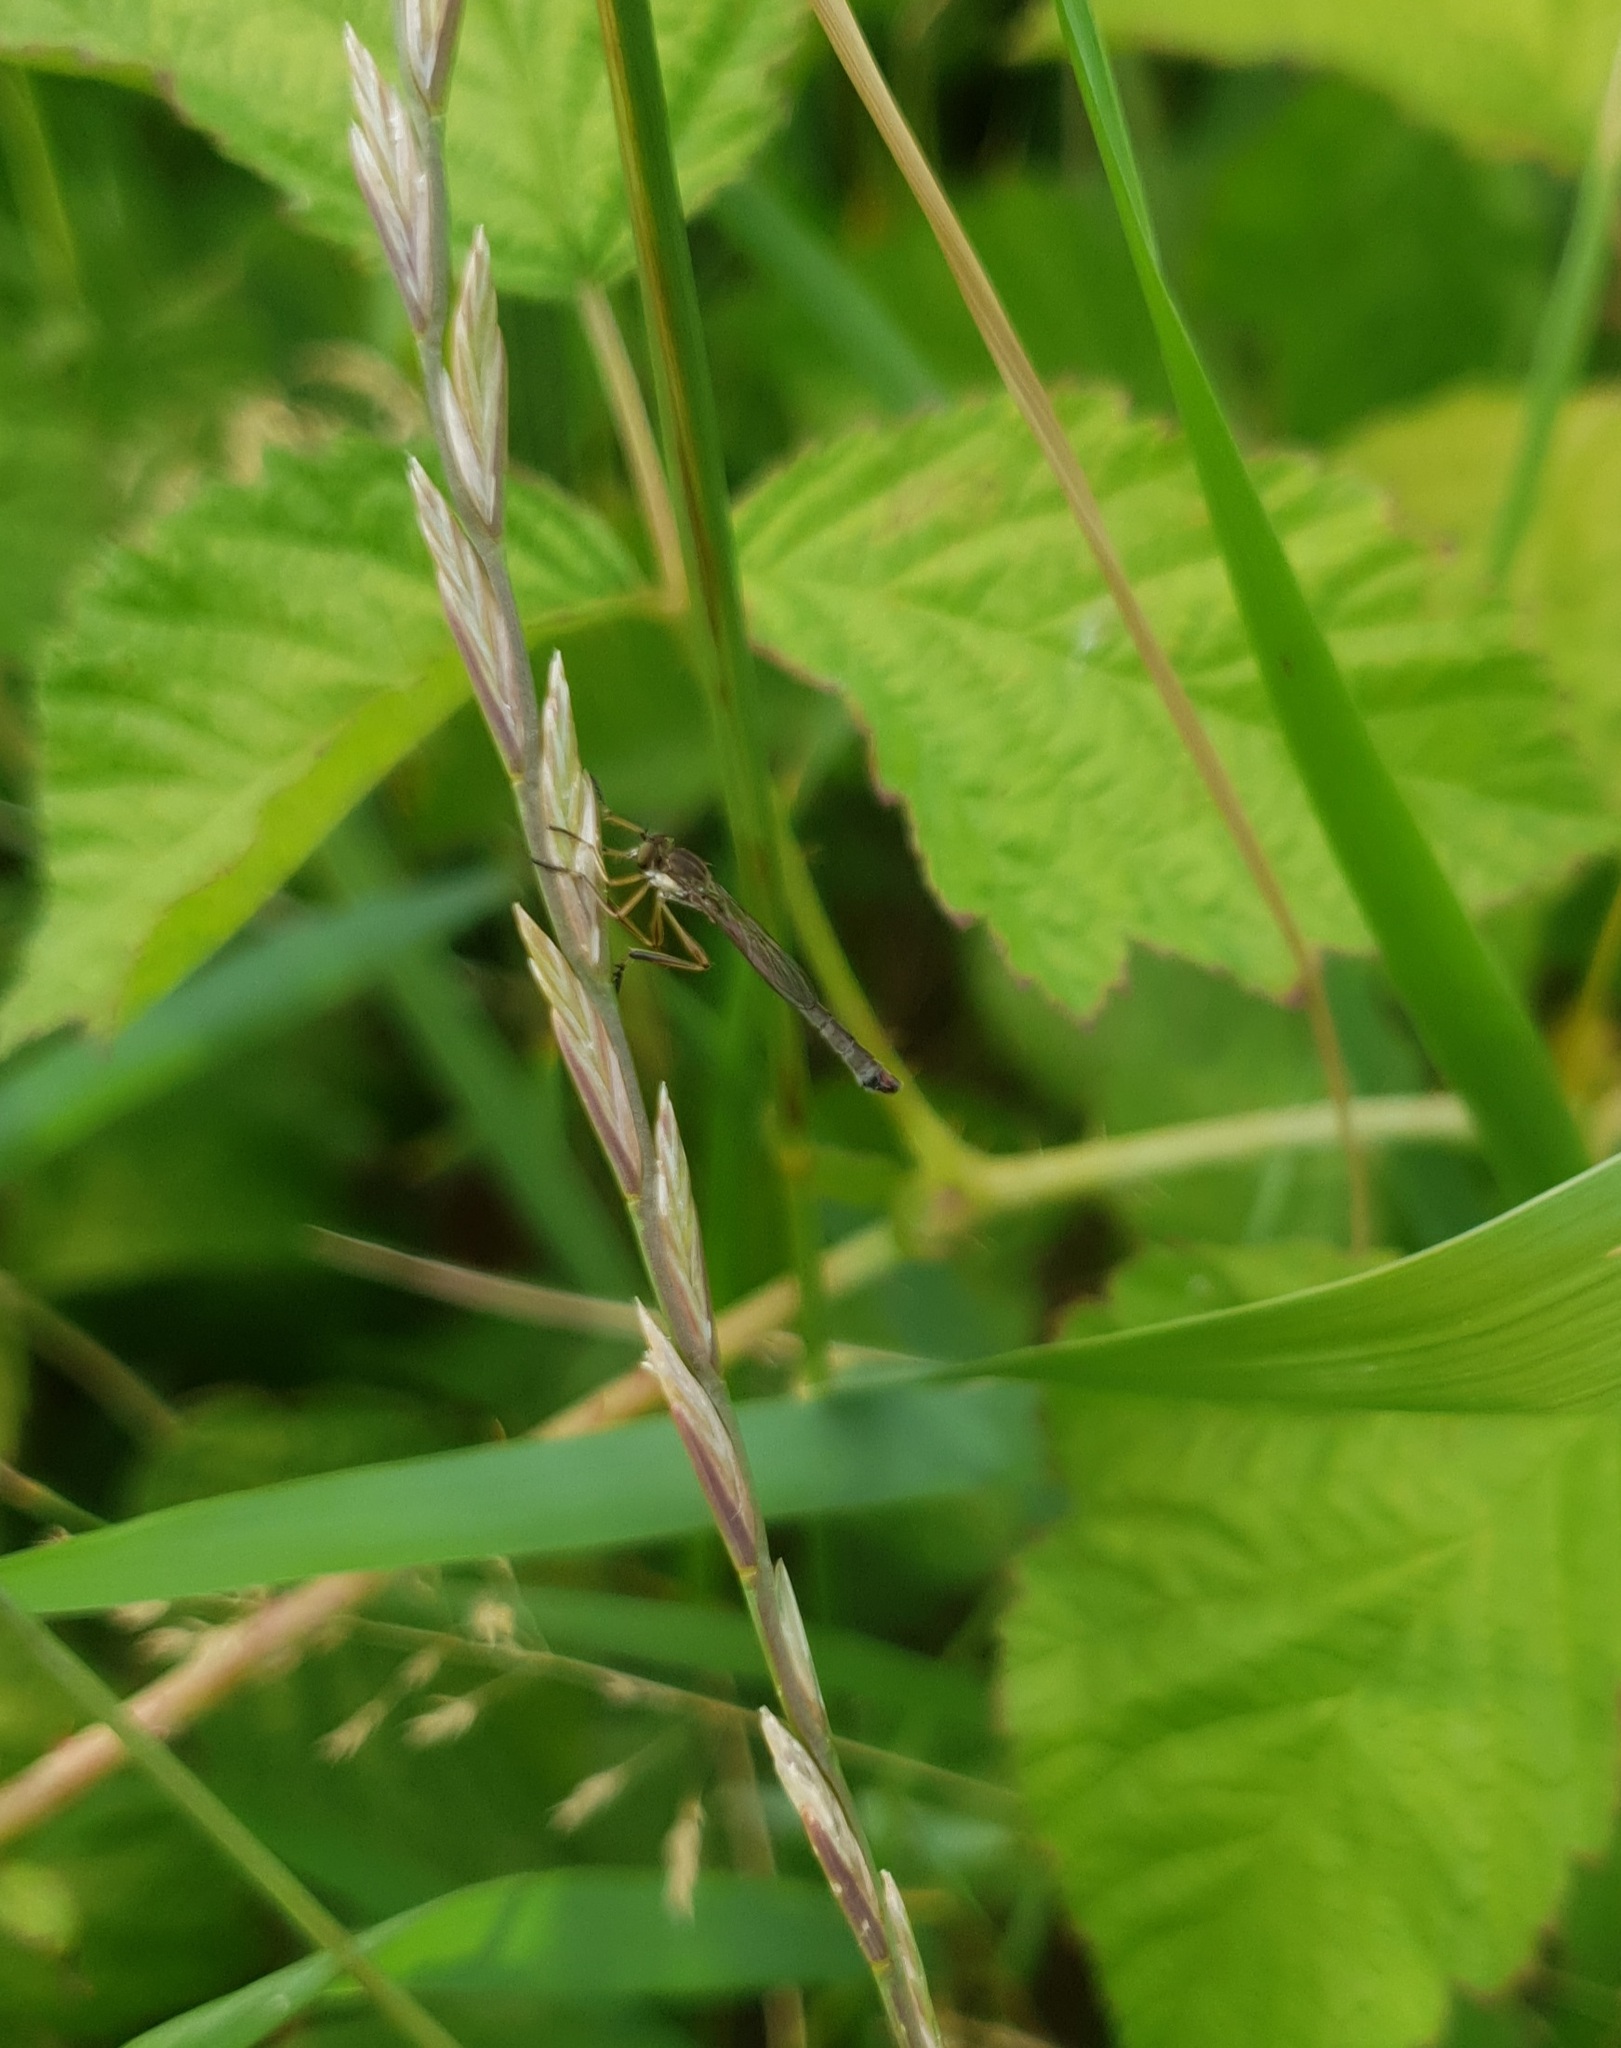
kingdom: Animalia
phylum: Arthropoda
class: Insecta
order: Diptera
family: Asilidae
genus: Leptogaster
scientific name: Leptogaster cylindrica
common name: Striped slender robberfly
